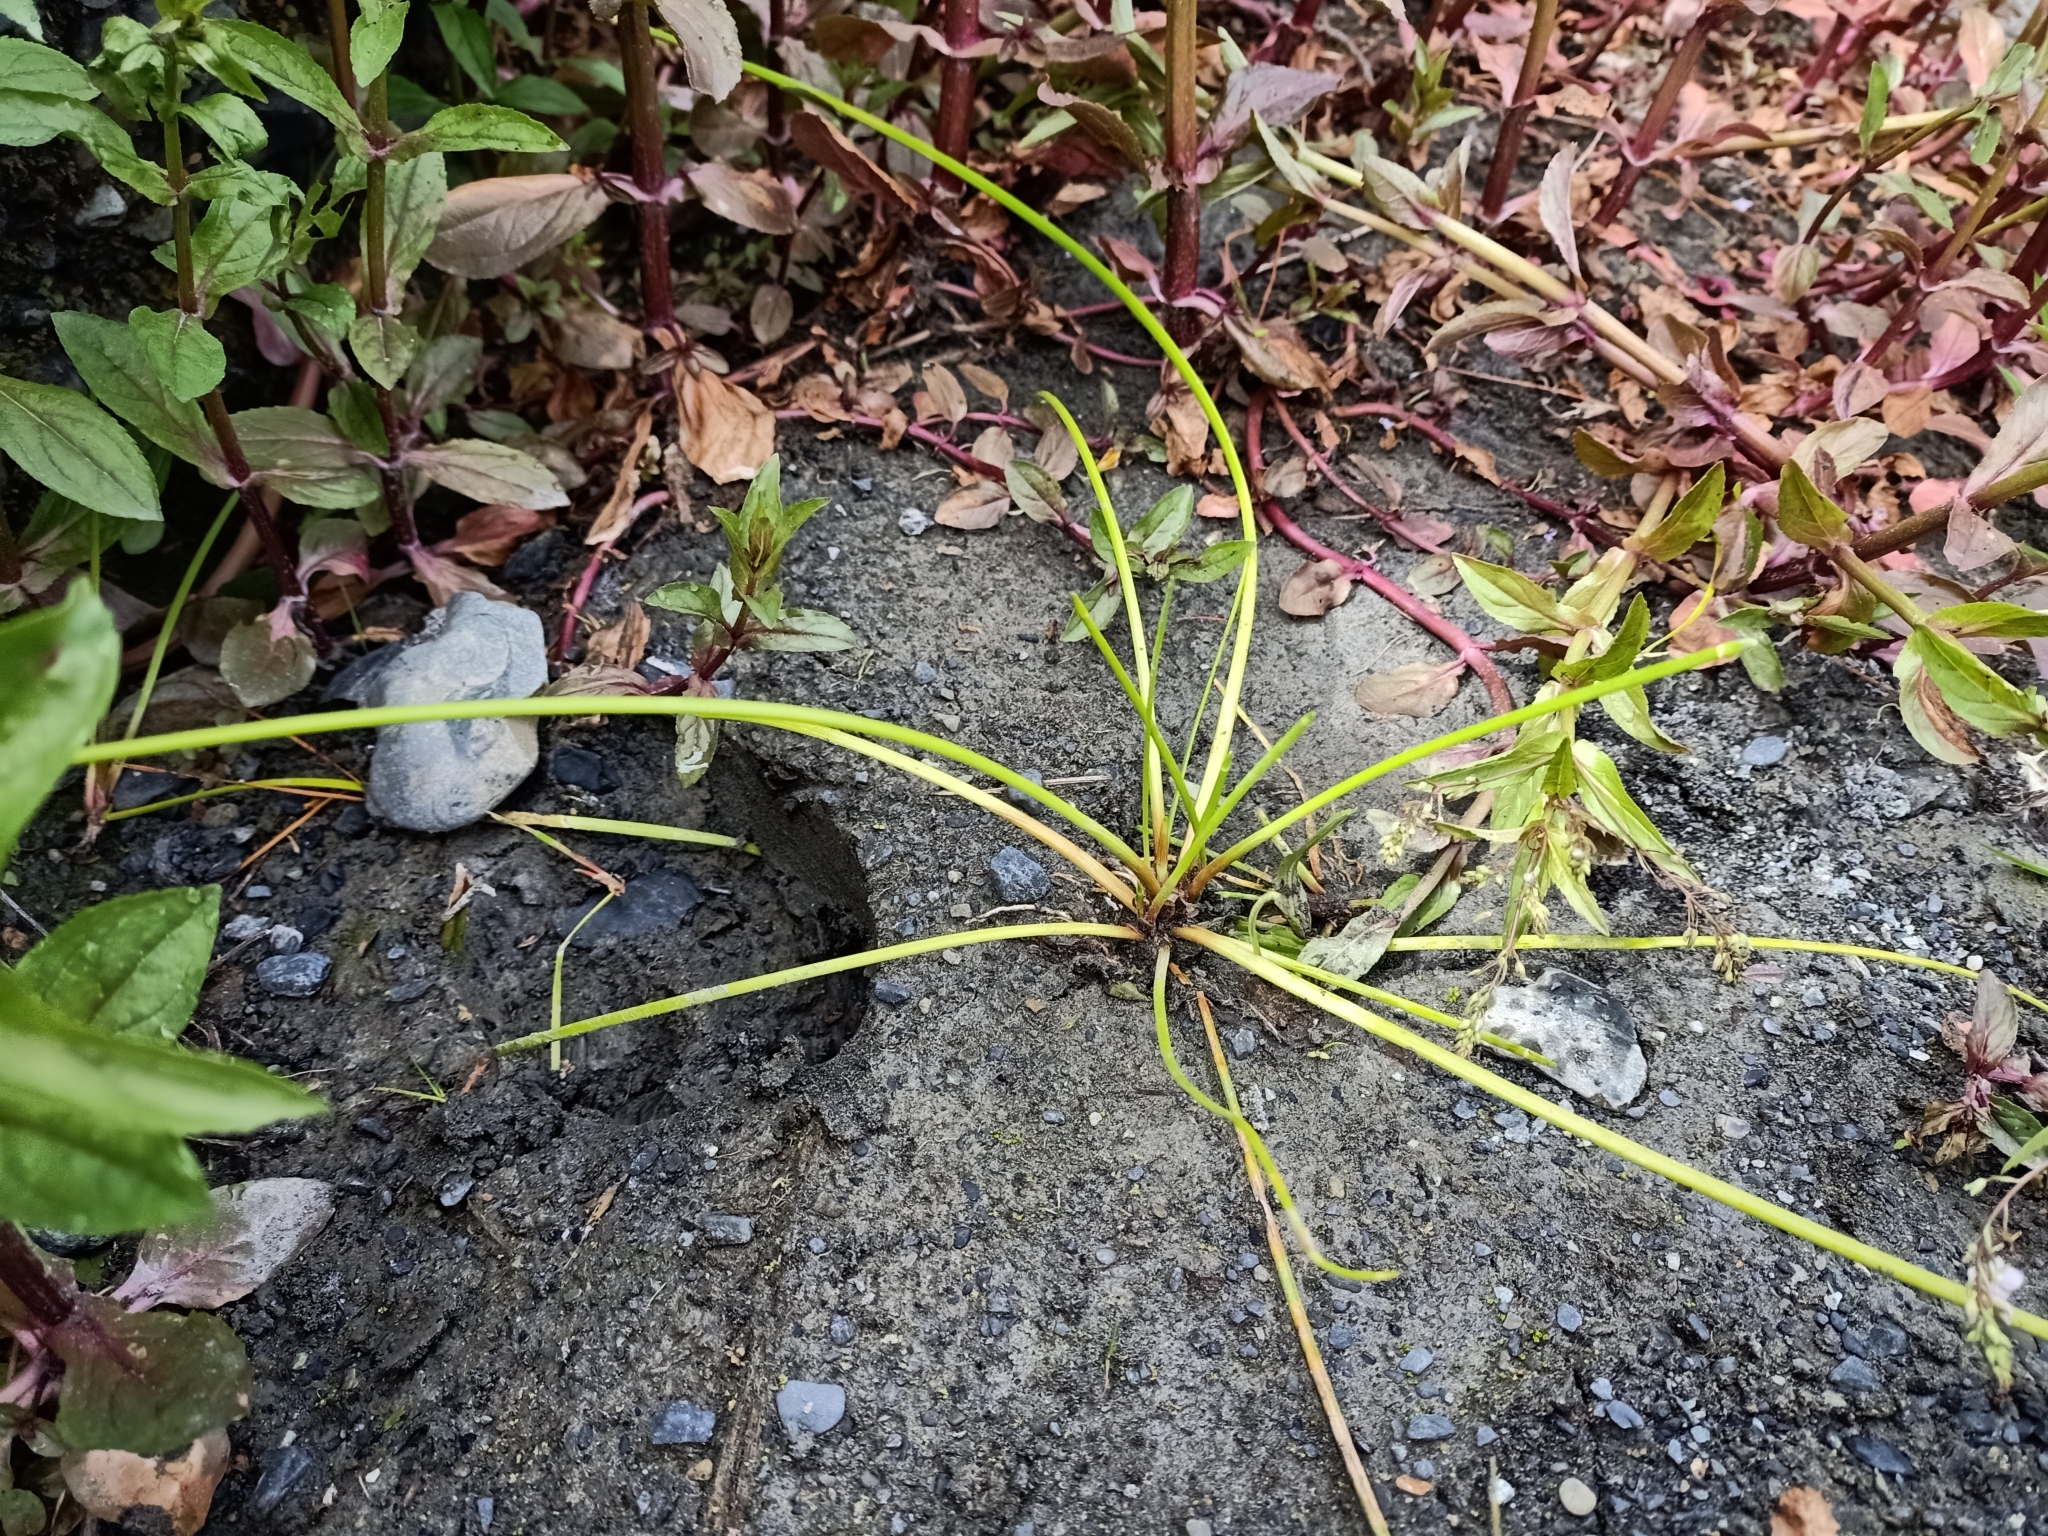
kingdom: Plantae
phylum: Tracheophyta
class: Liliopsida
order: Asparagales
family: Asparagaceae
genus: Cordyline
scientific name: Cordyline australis
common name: Cabbage-palm
